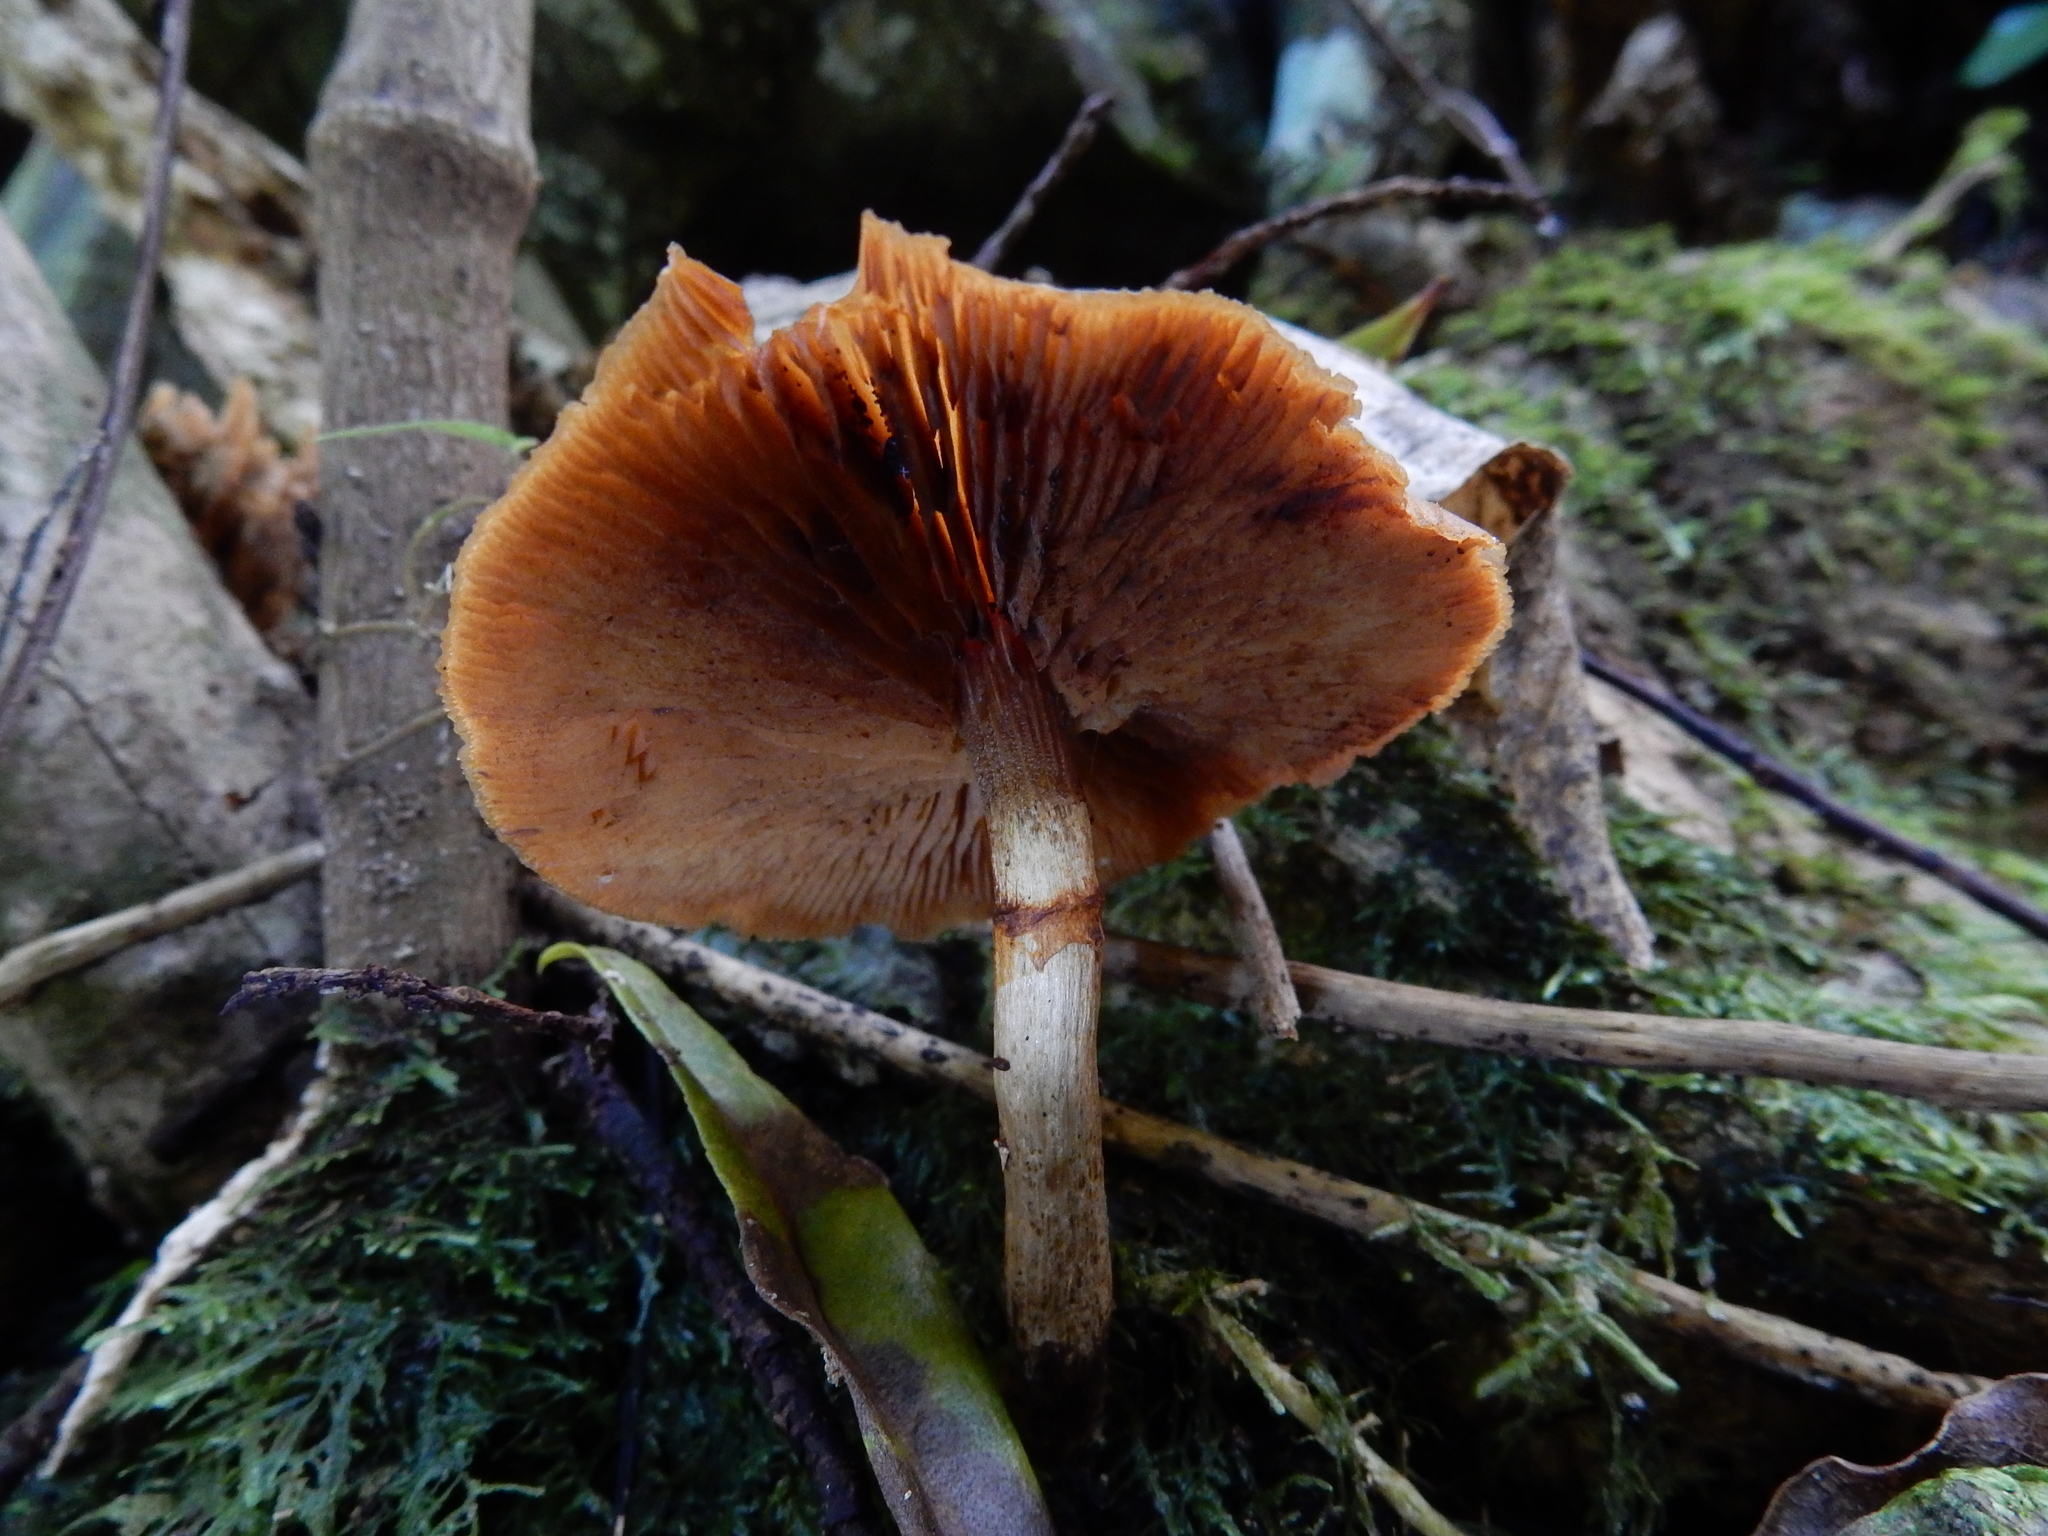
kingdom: Fungi
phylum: Basidiomycota
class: Agaricomycetes
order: Agaricales
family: Hymenogastraceae
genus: Galerina
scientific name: Galerina patagonica
